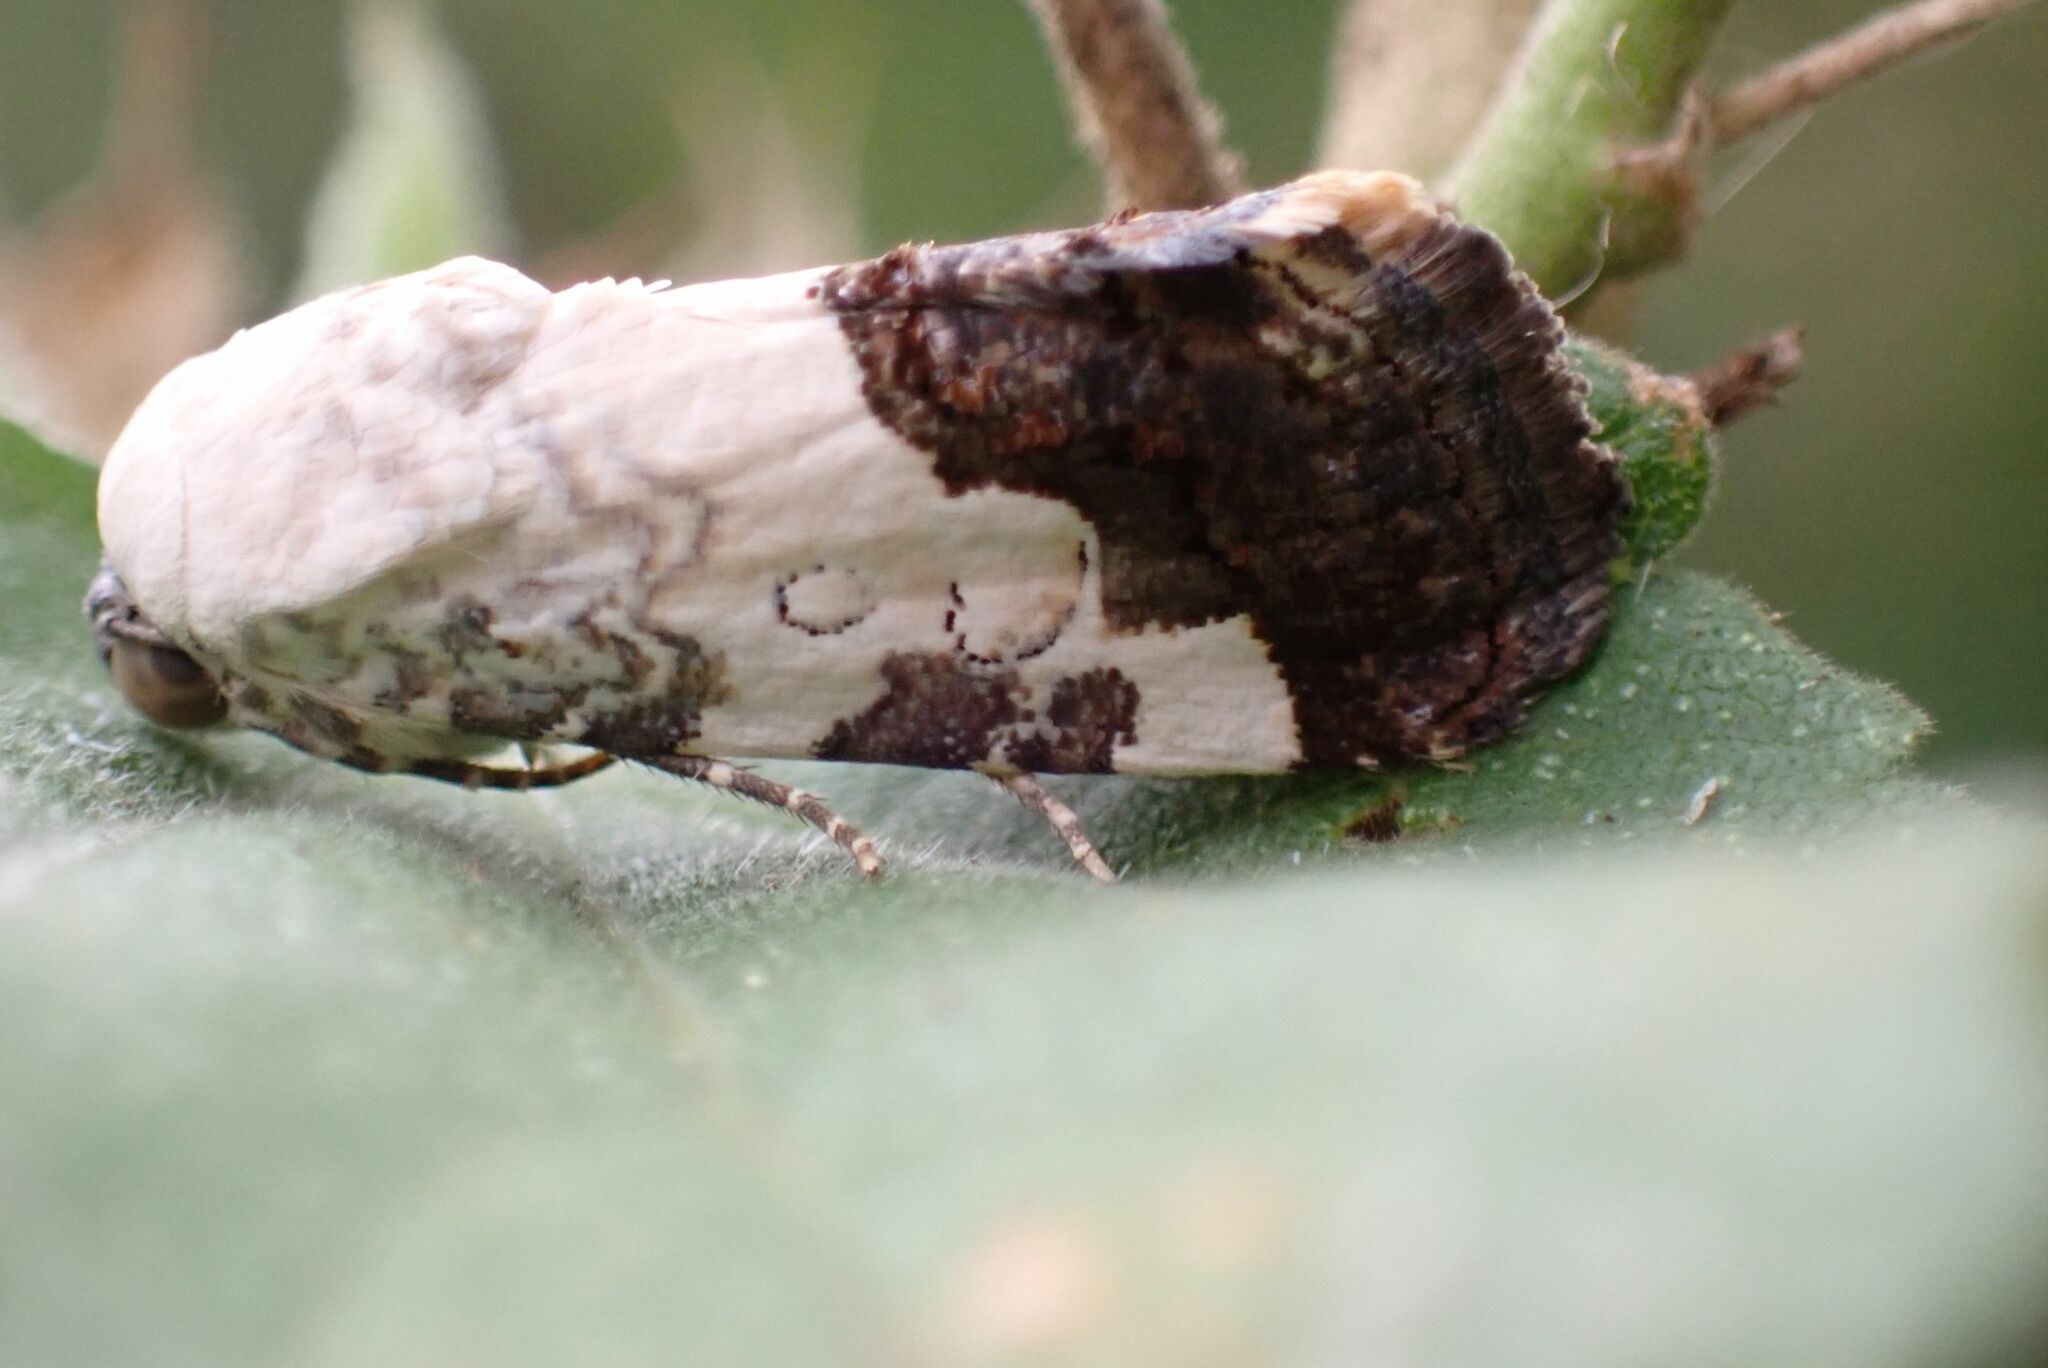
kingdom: Animalia
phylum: Arthropoda
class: Insecta
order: Lepidoptera
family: Noctuidae
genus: Acontia
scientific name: Acontia discoidea
